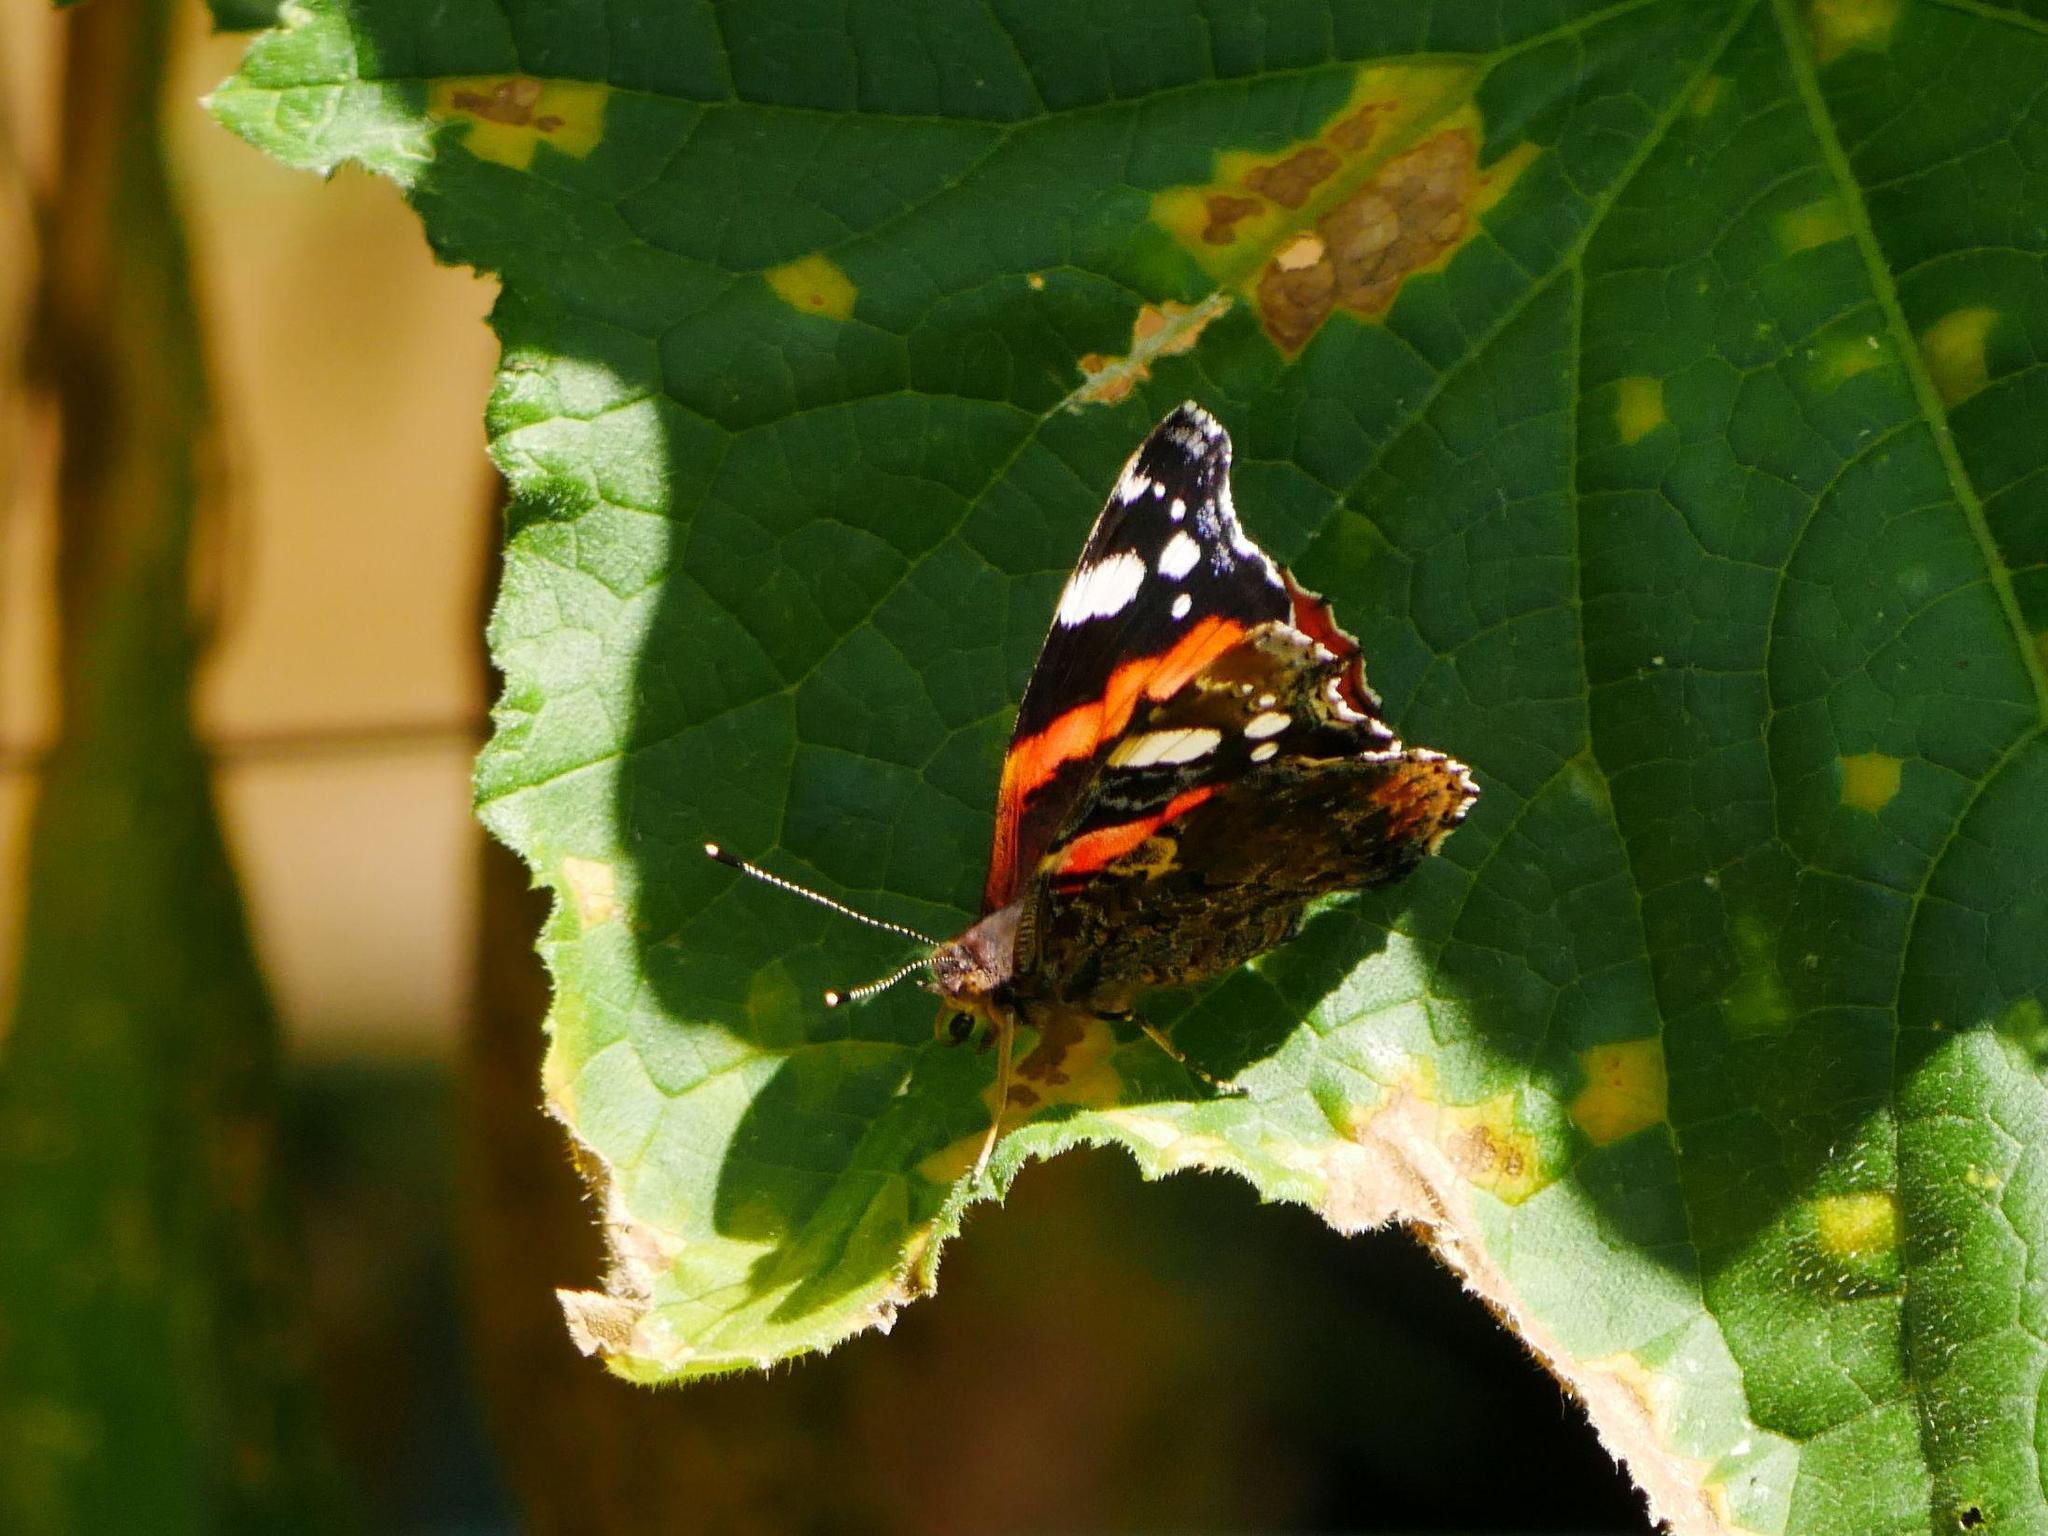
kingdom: Animalia
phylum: Arthropoda
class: Insecta
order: Lepidoptera
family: Nymphalidae
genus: Vanessa
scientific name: Vanessa atalanta
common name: Red admiral
